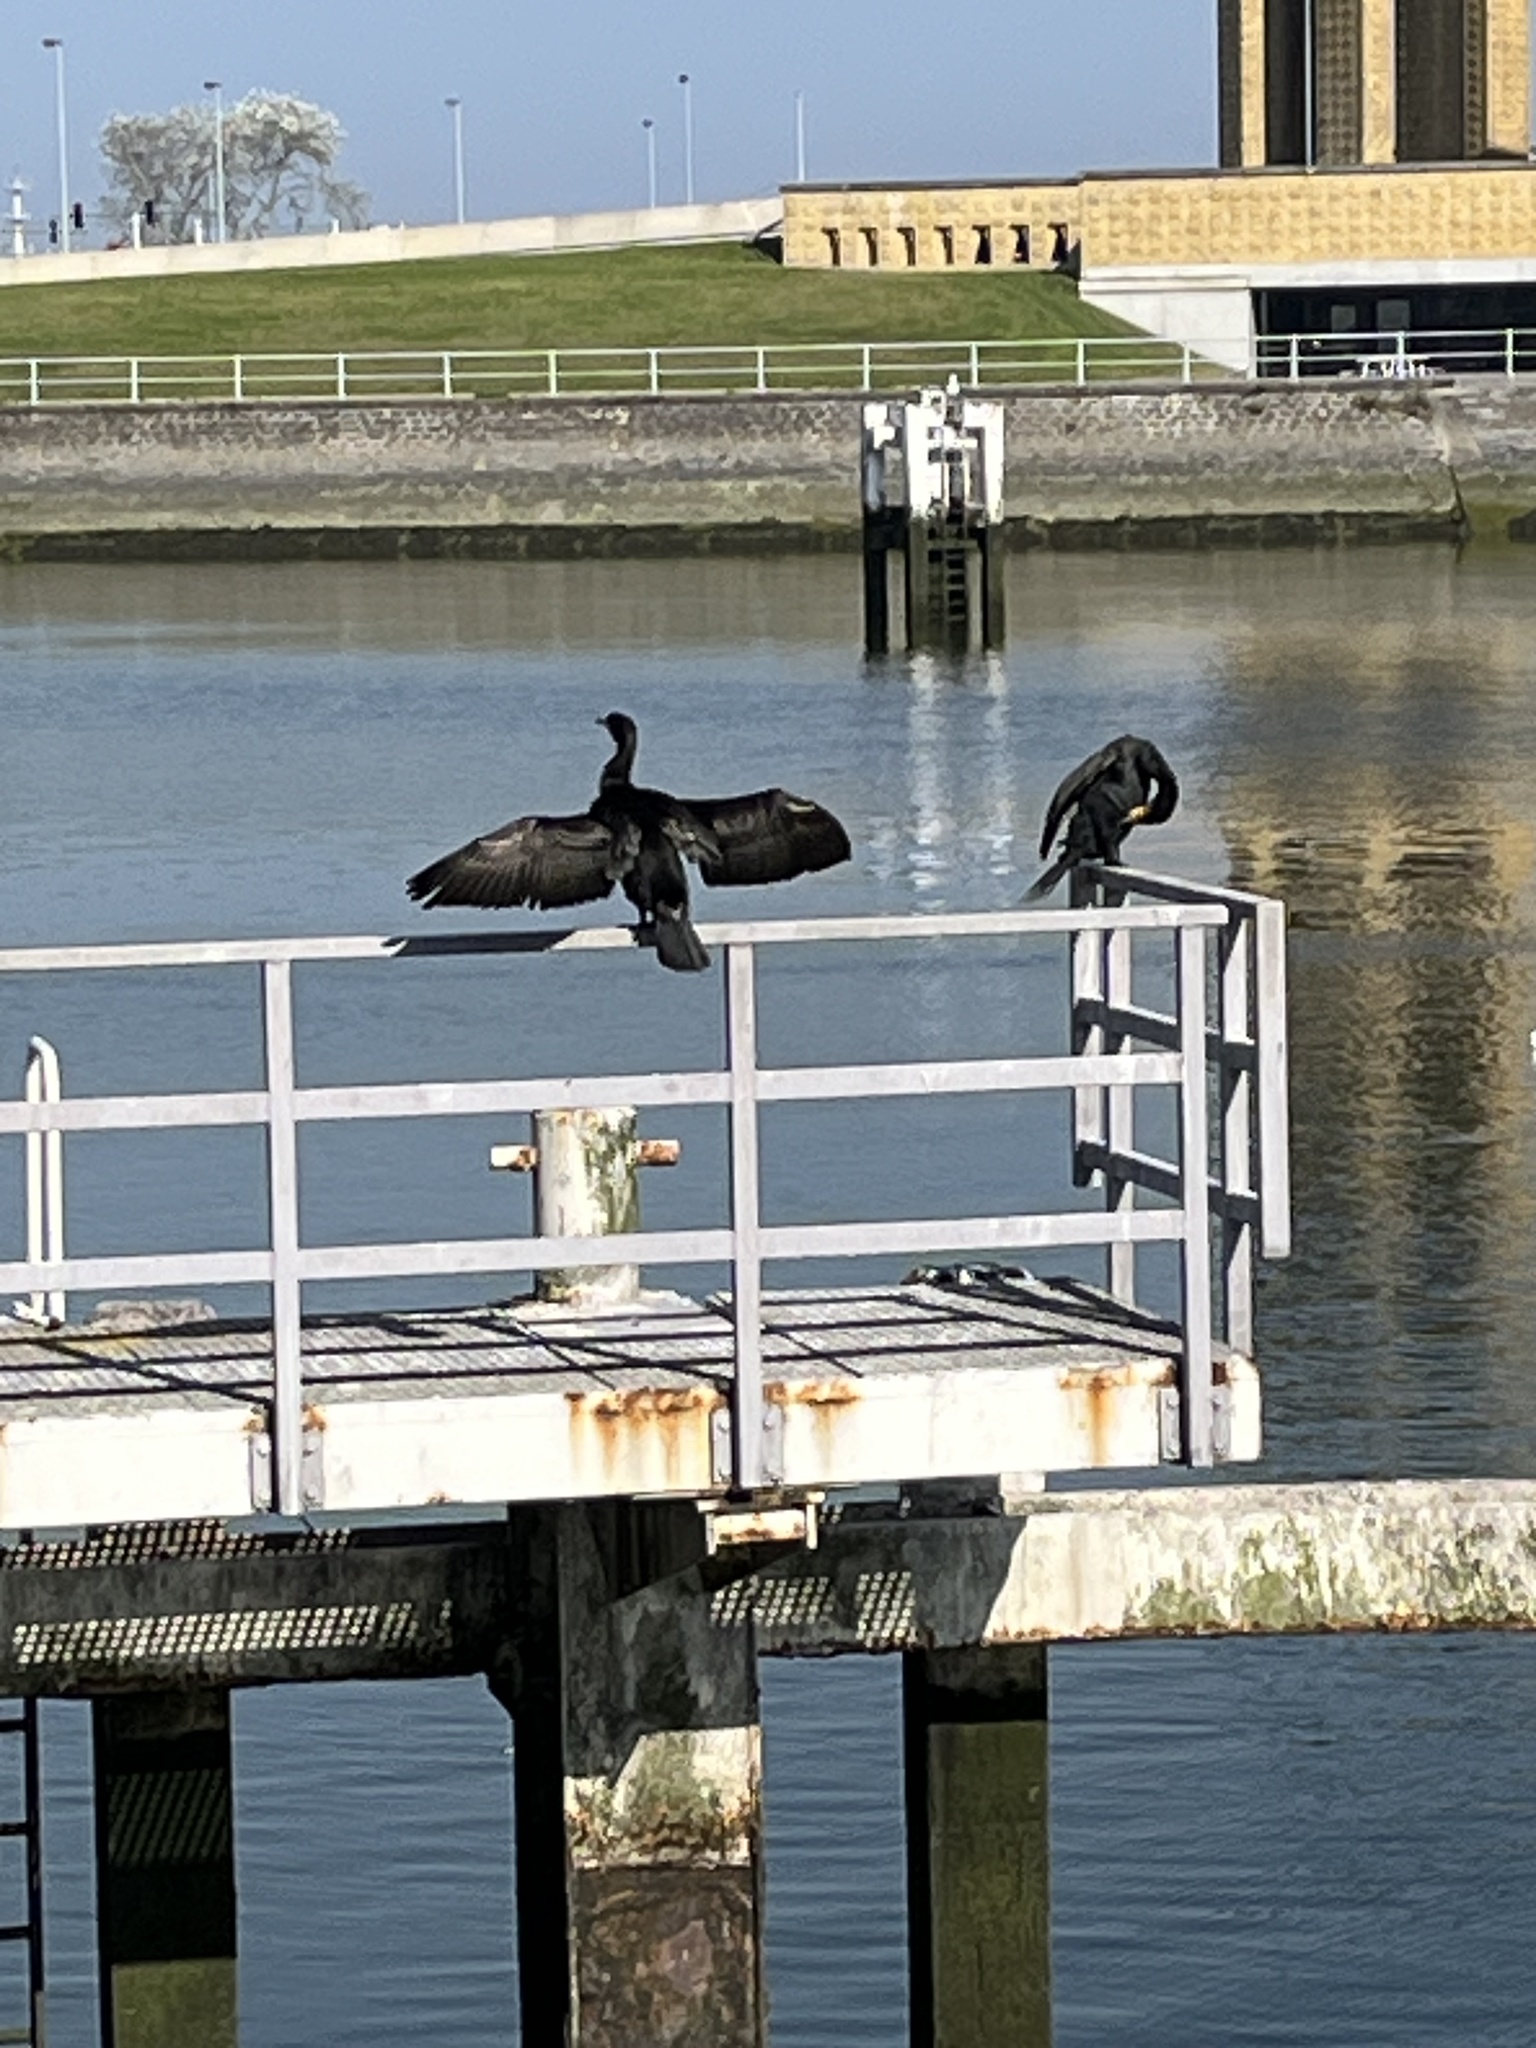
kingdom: Animalia
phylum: Chordata
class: Aves
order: Suliformes
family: Phalacrocoracidae
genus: Phalacrocorax
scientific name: Phalacrocorax carbo
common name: Great cormorant
